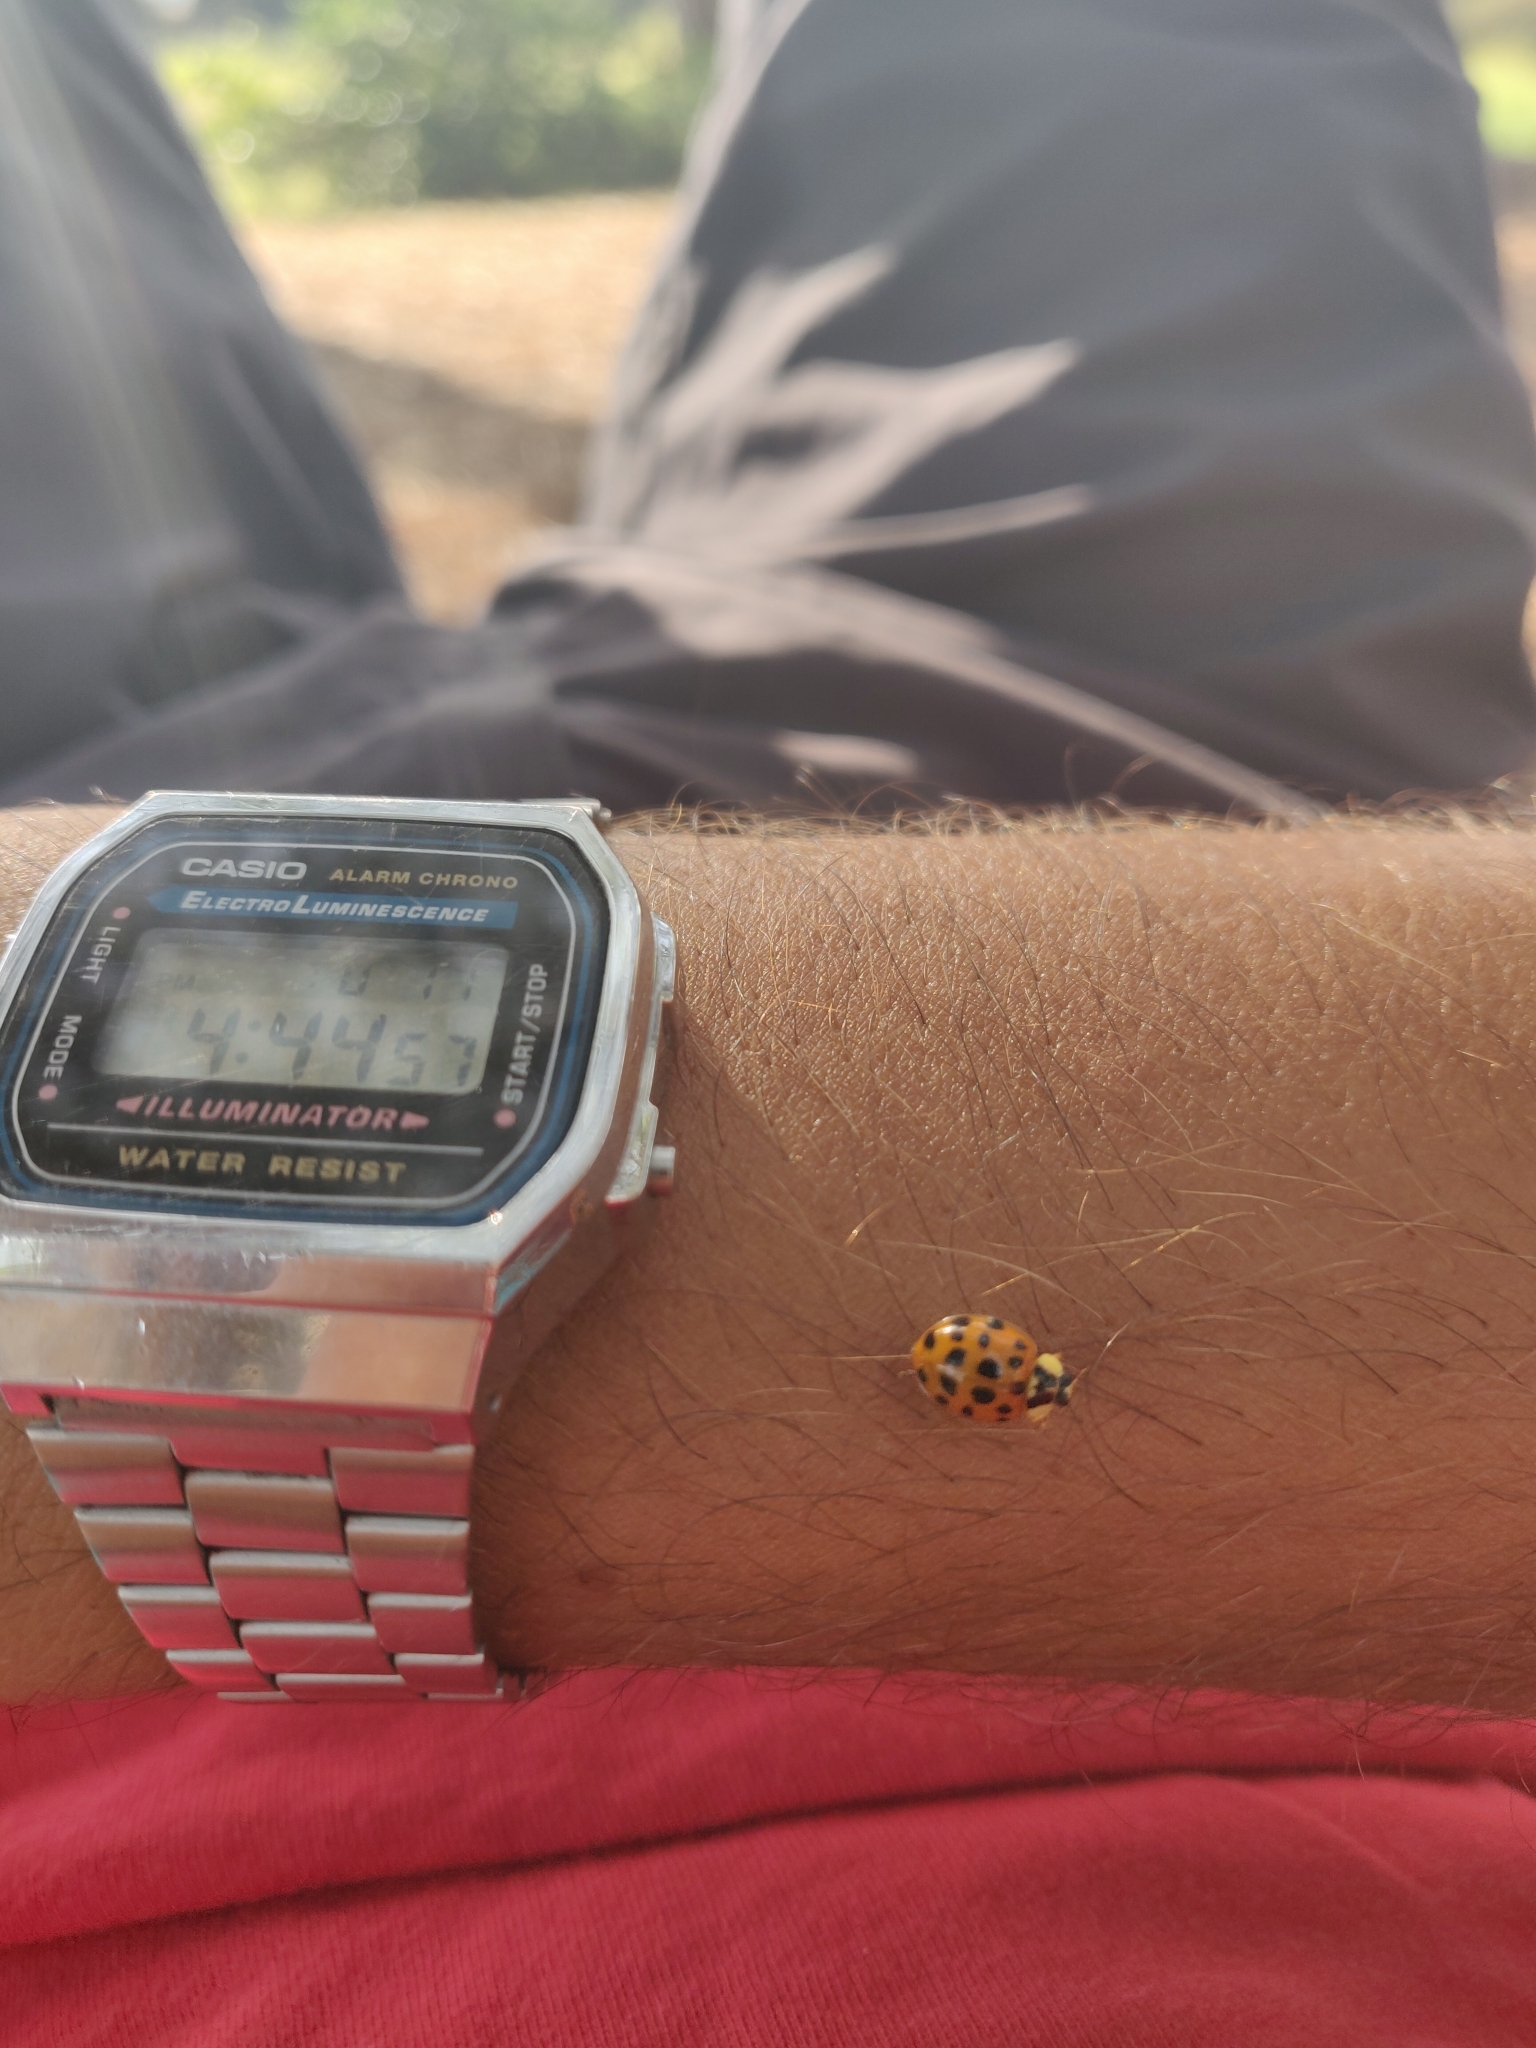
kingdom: Animalia
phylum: Arthropoda
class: Insecta
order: Coleoptera
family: Coccinellidae
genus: Harmonia
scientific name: Harmonia axyridis
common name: Harlequin ladybird
